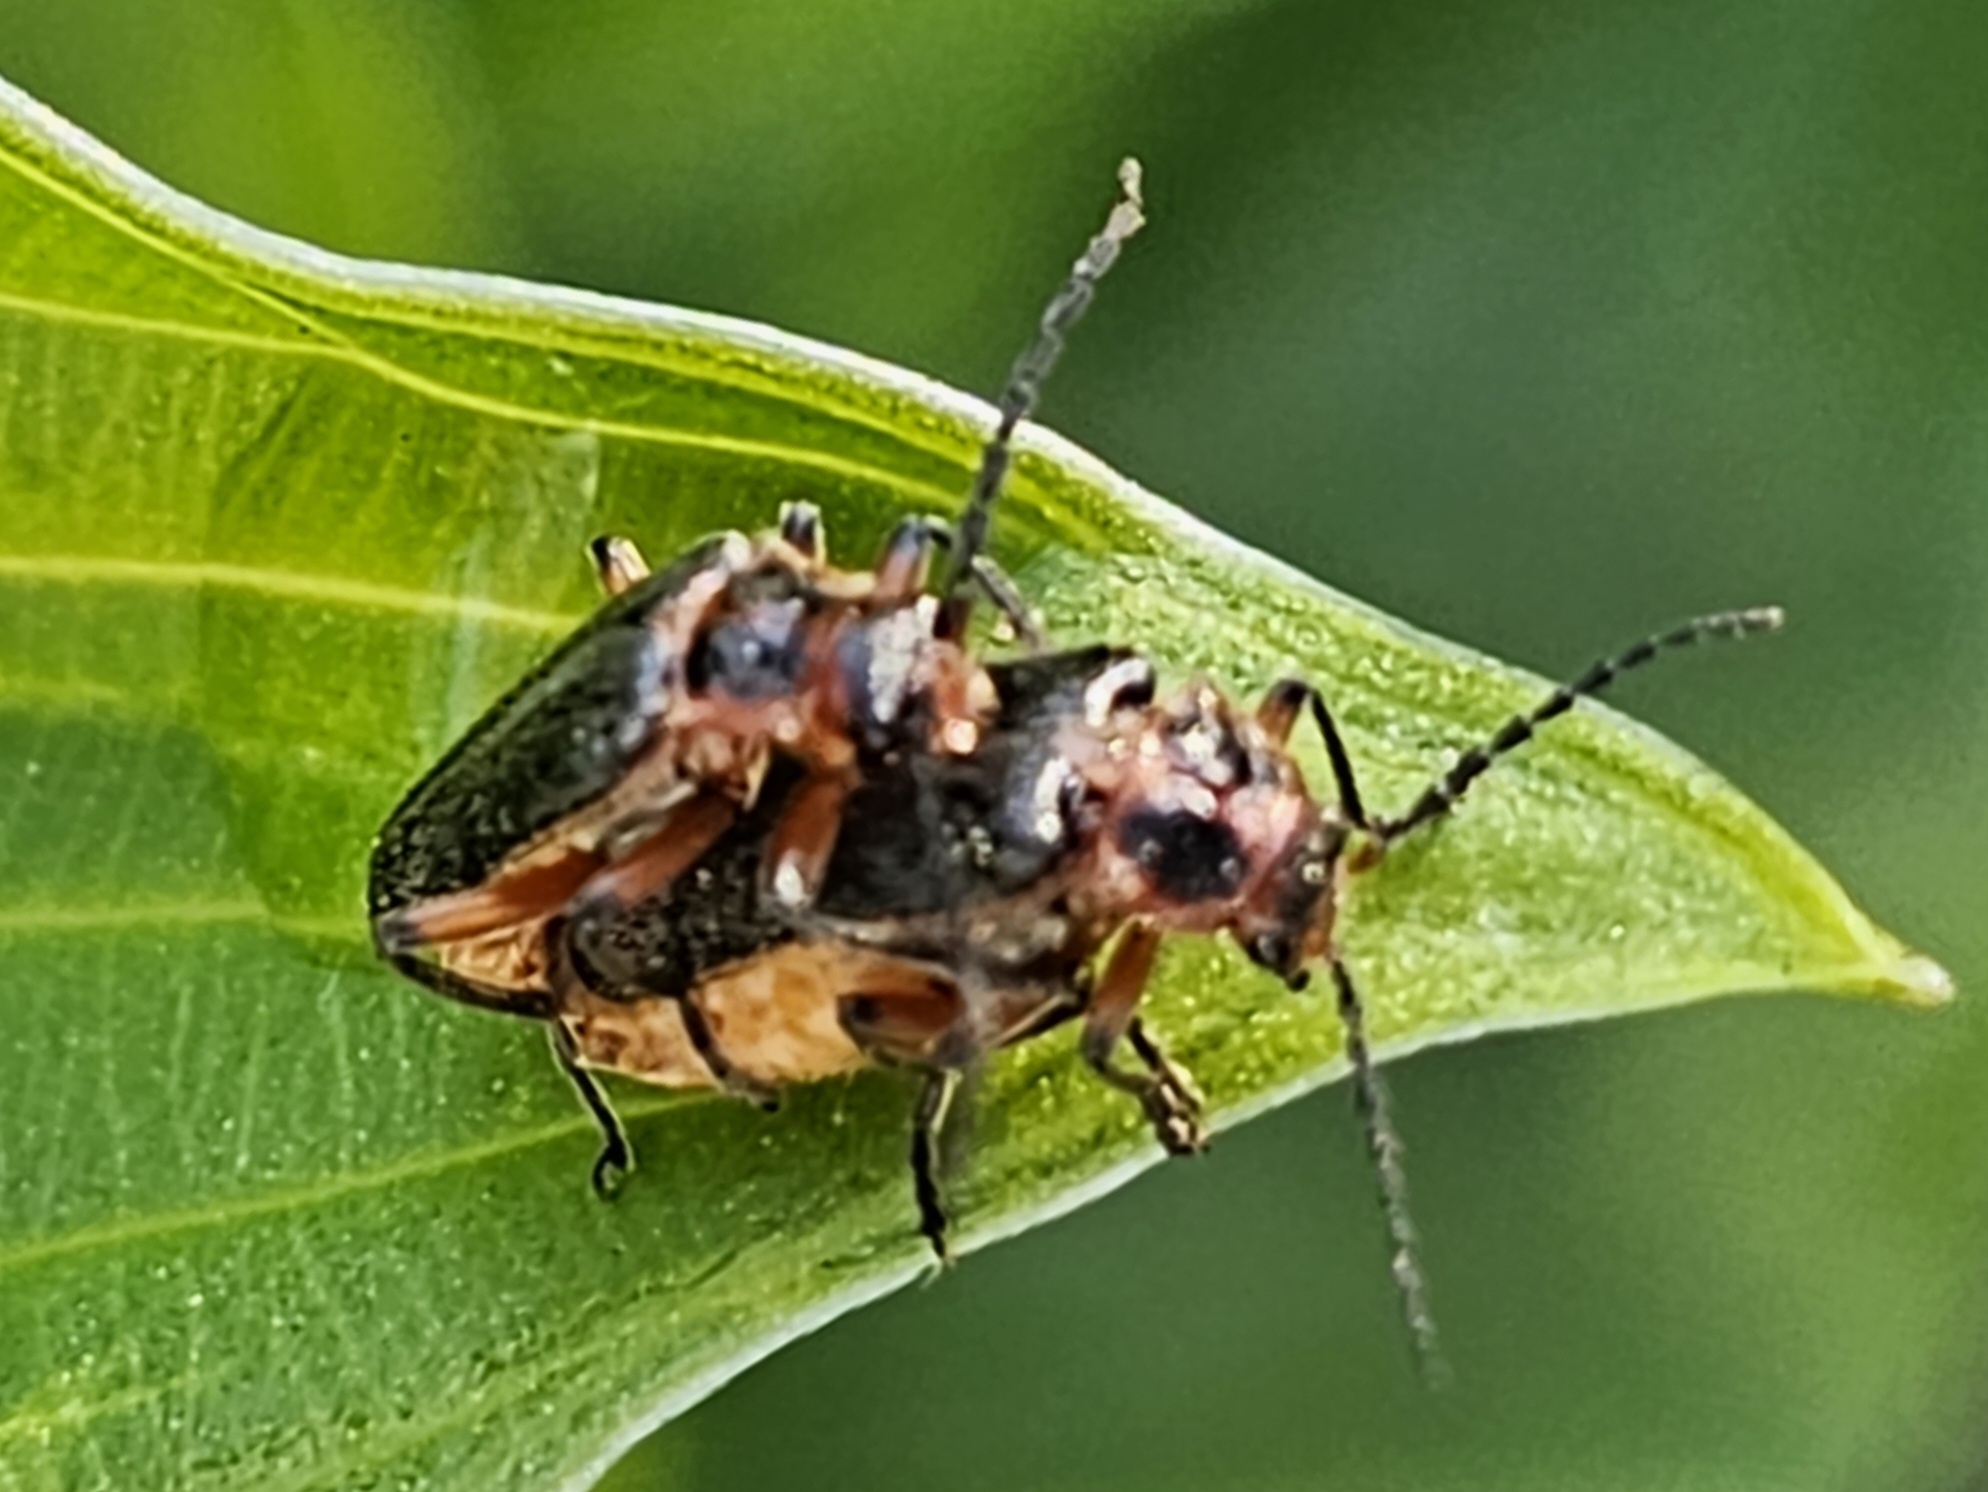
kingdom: Animalia
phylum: Arthropoda
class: Insecta
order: Coleoptera
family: Cantharidae
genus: Atalantycha
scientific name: Atalantycha bilineata
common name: Two-lined leatherwing
